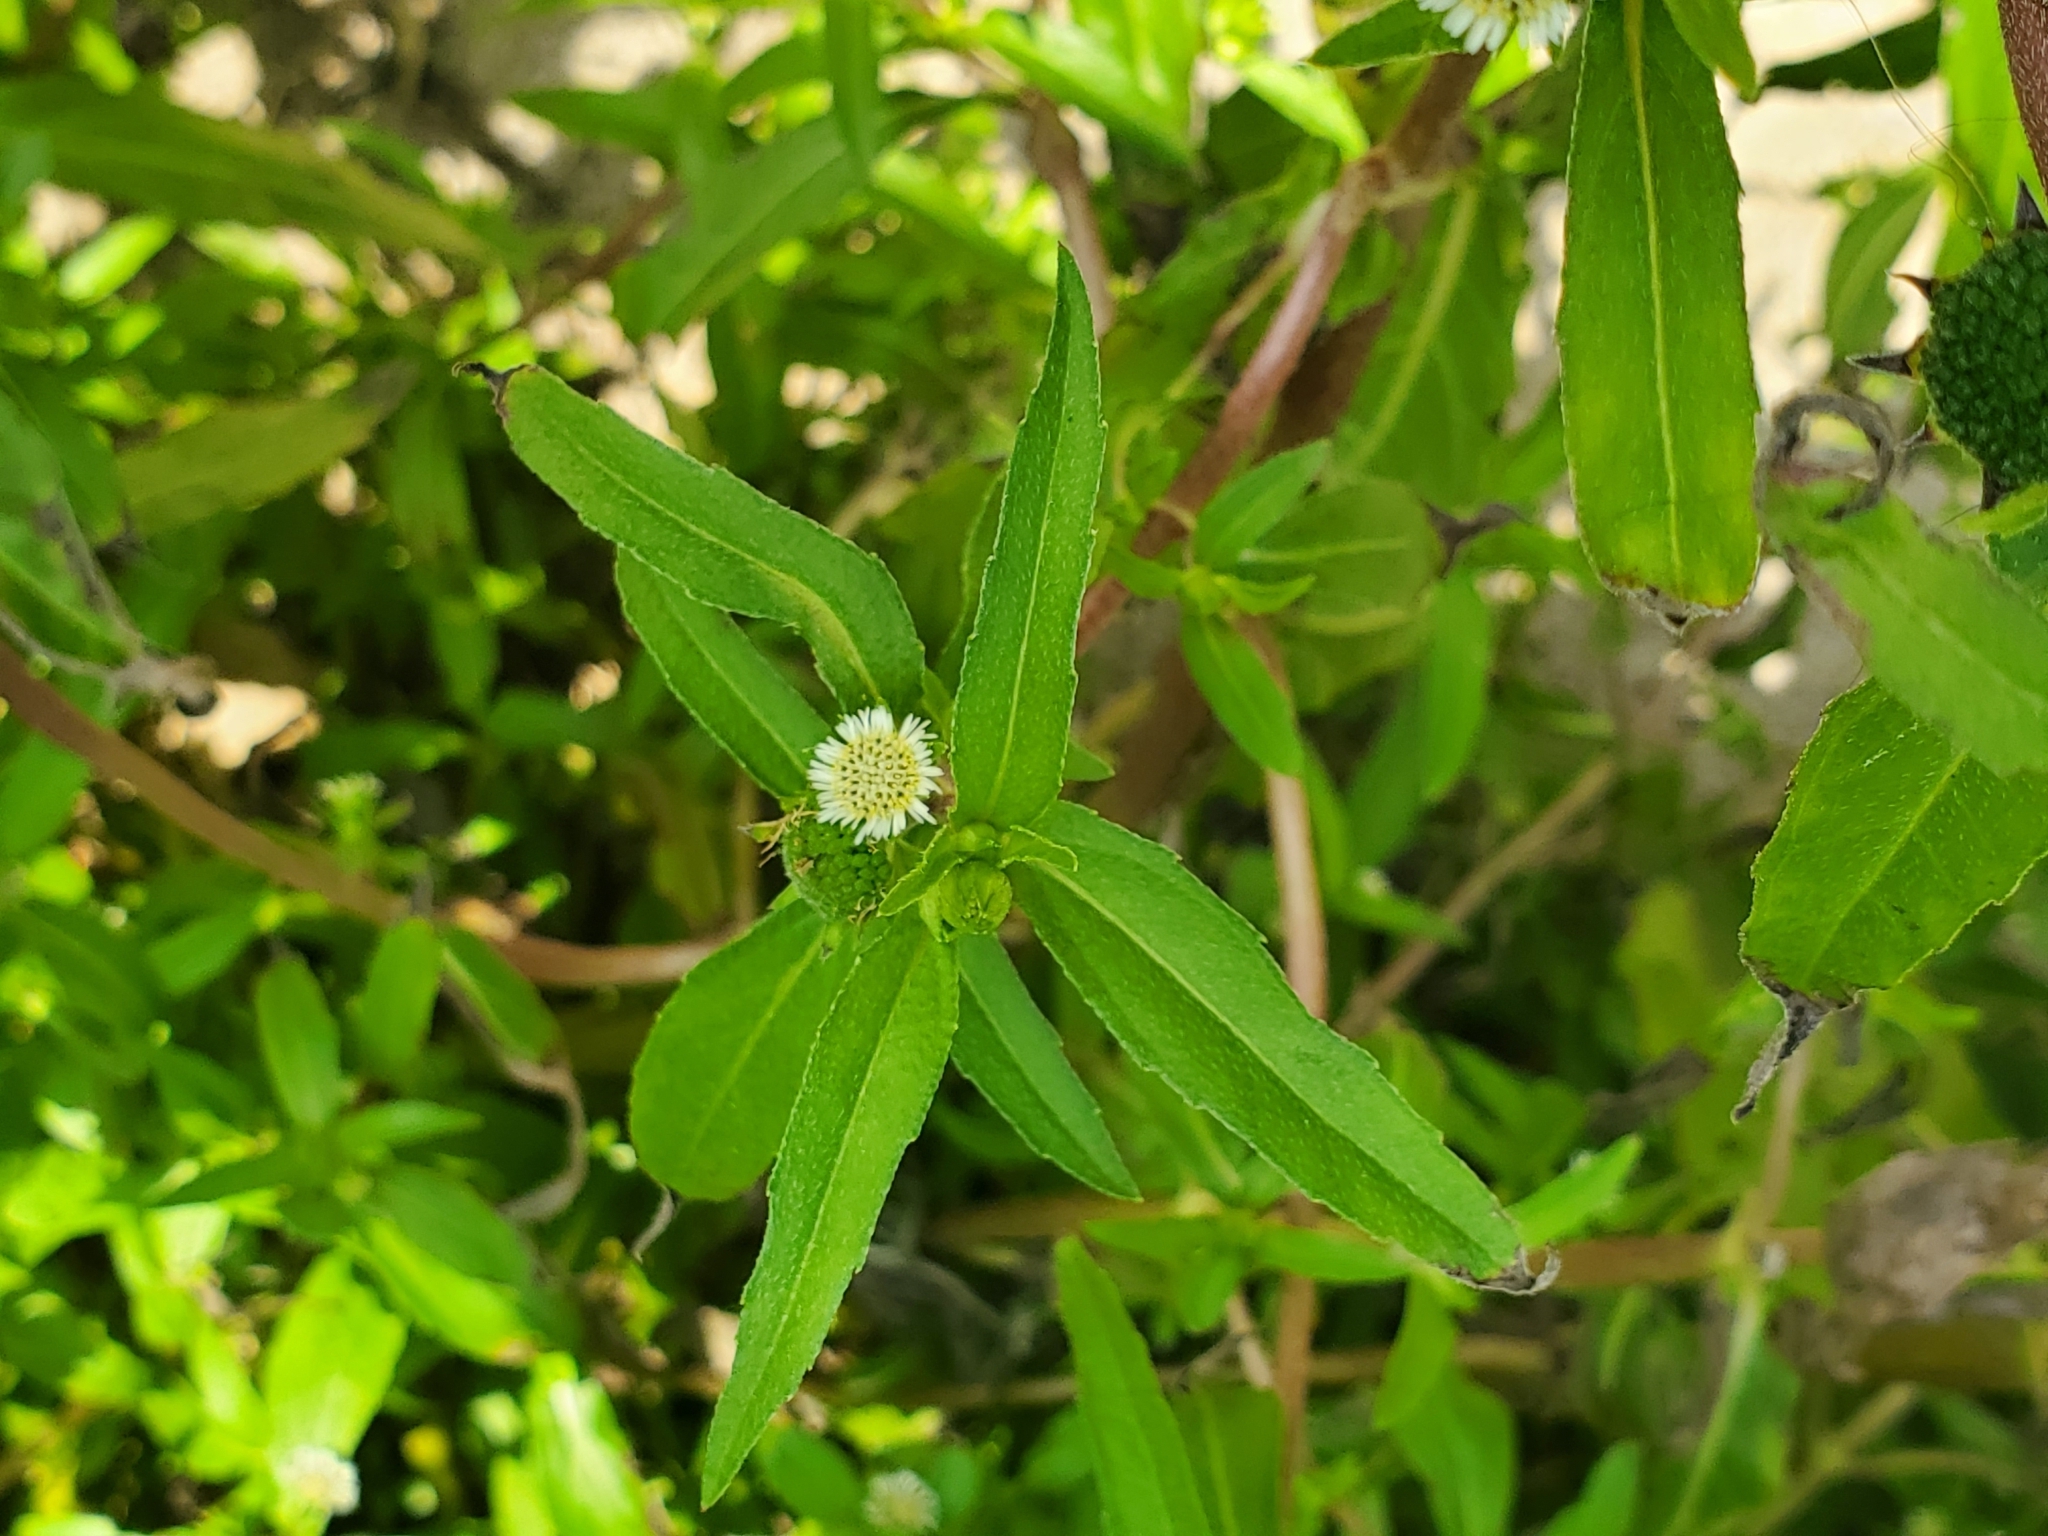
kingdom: Plantae
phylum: Tracheophyta
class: Magnoliopsida
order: Asterales
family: Asteraceae
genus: Eclipta
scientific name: Eclipta prostrata
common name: False daisy
